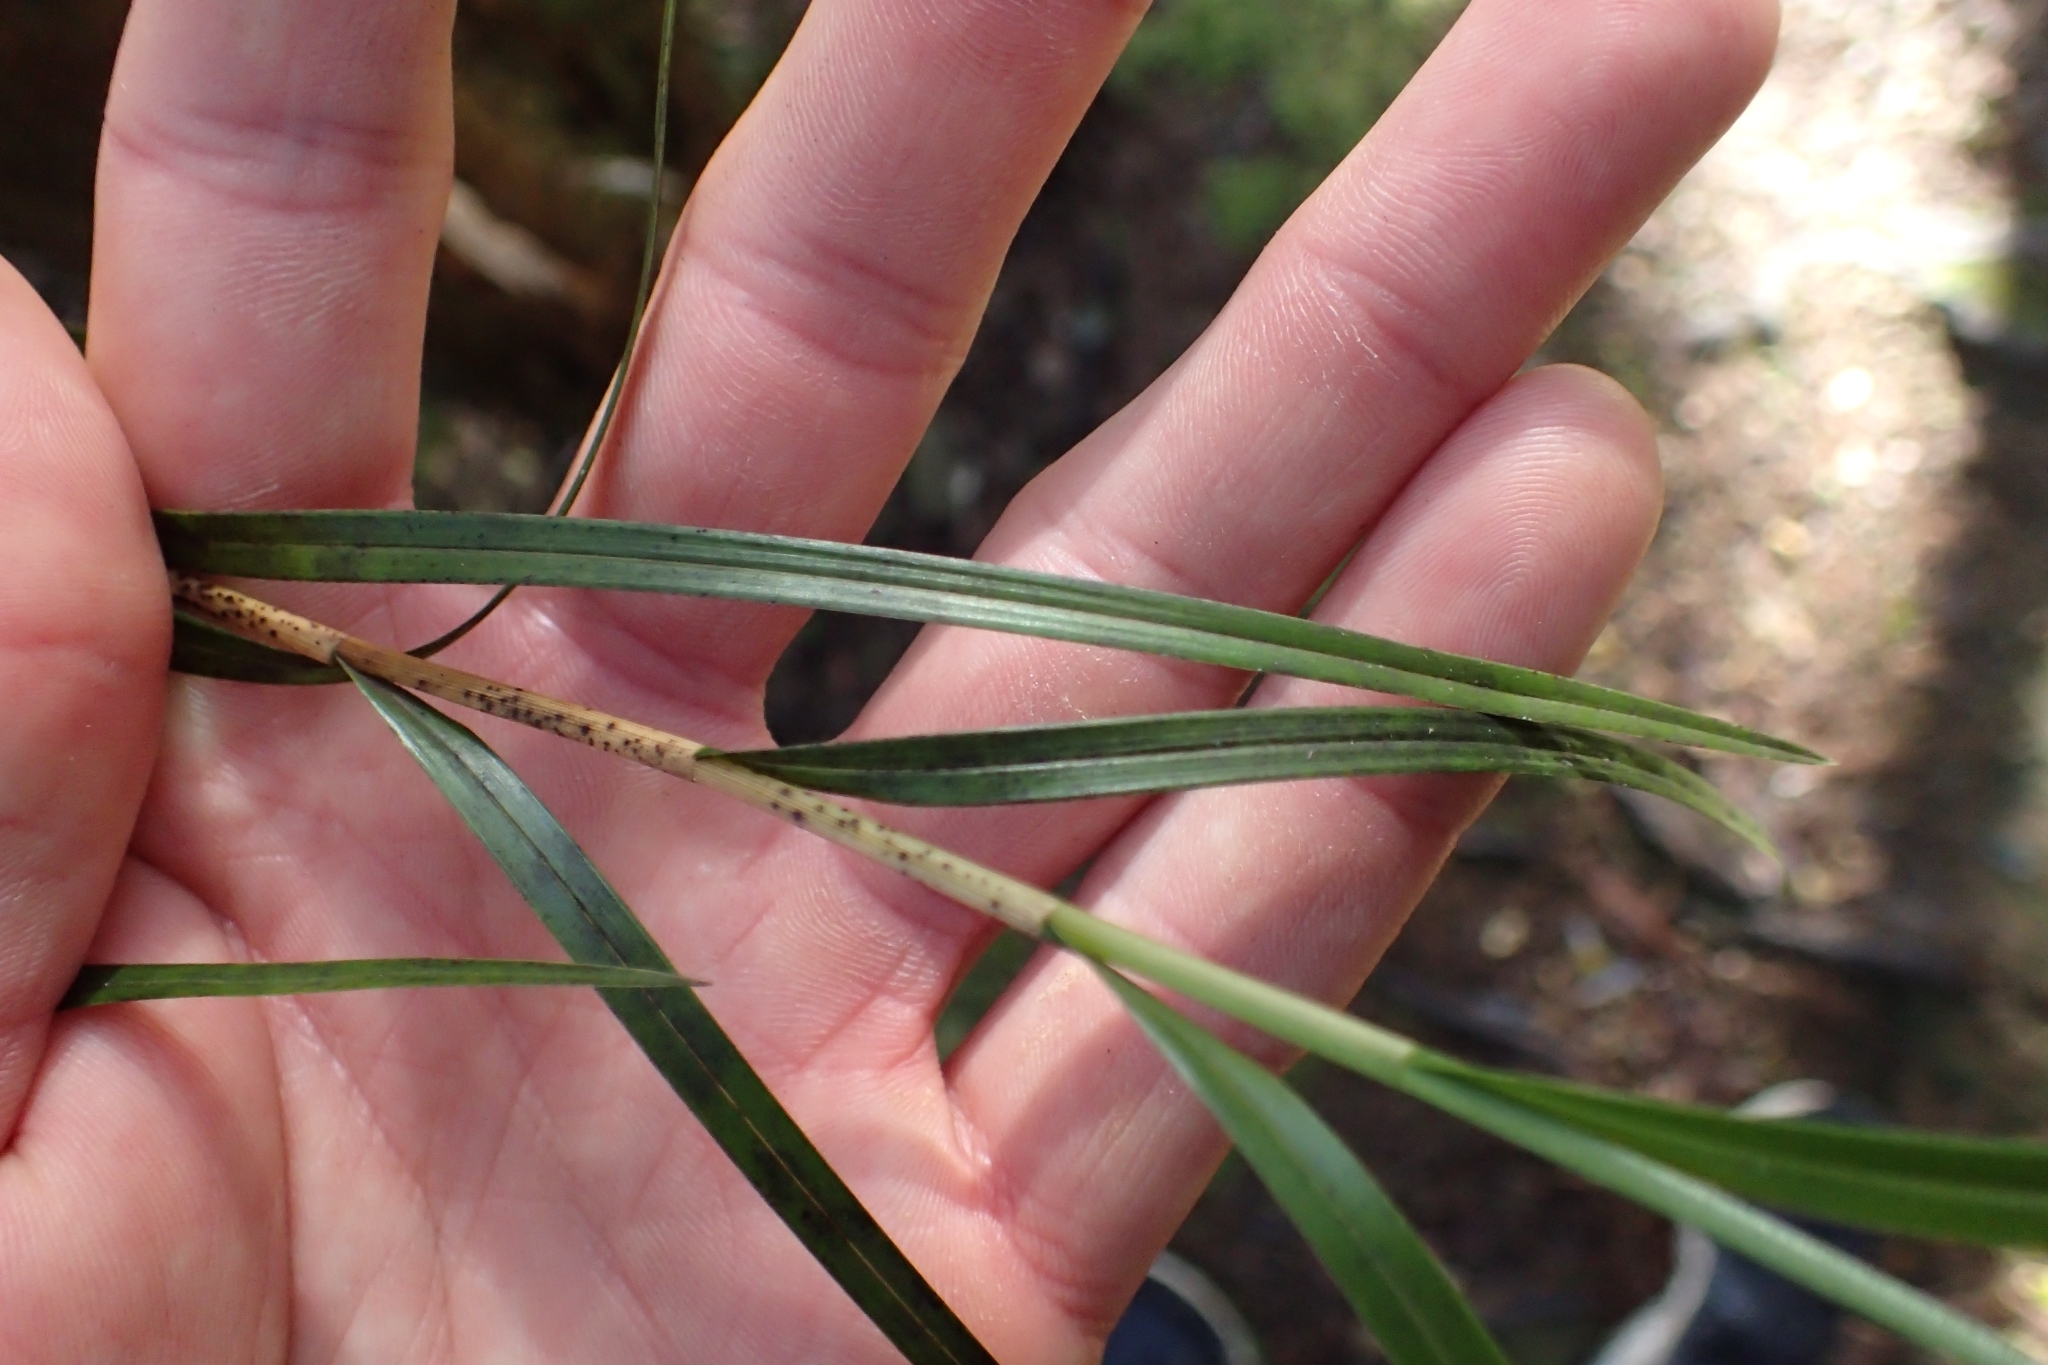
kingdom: Plantae
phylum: Tracheophyta
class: Liliopsida
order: Asparagales
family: Orchidaceae
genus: Earina
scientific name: Earina mucronata
